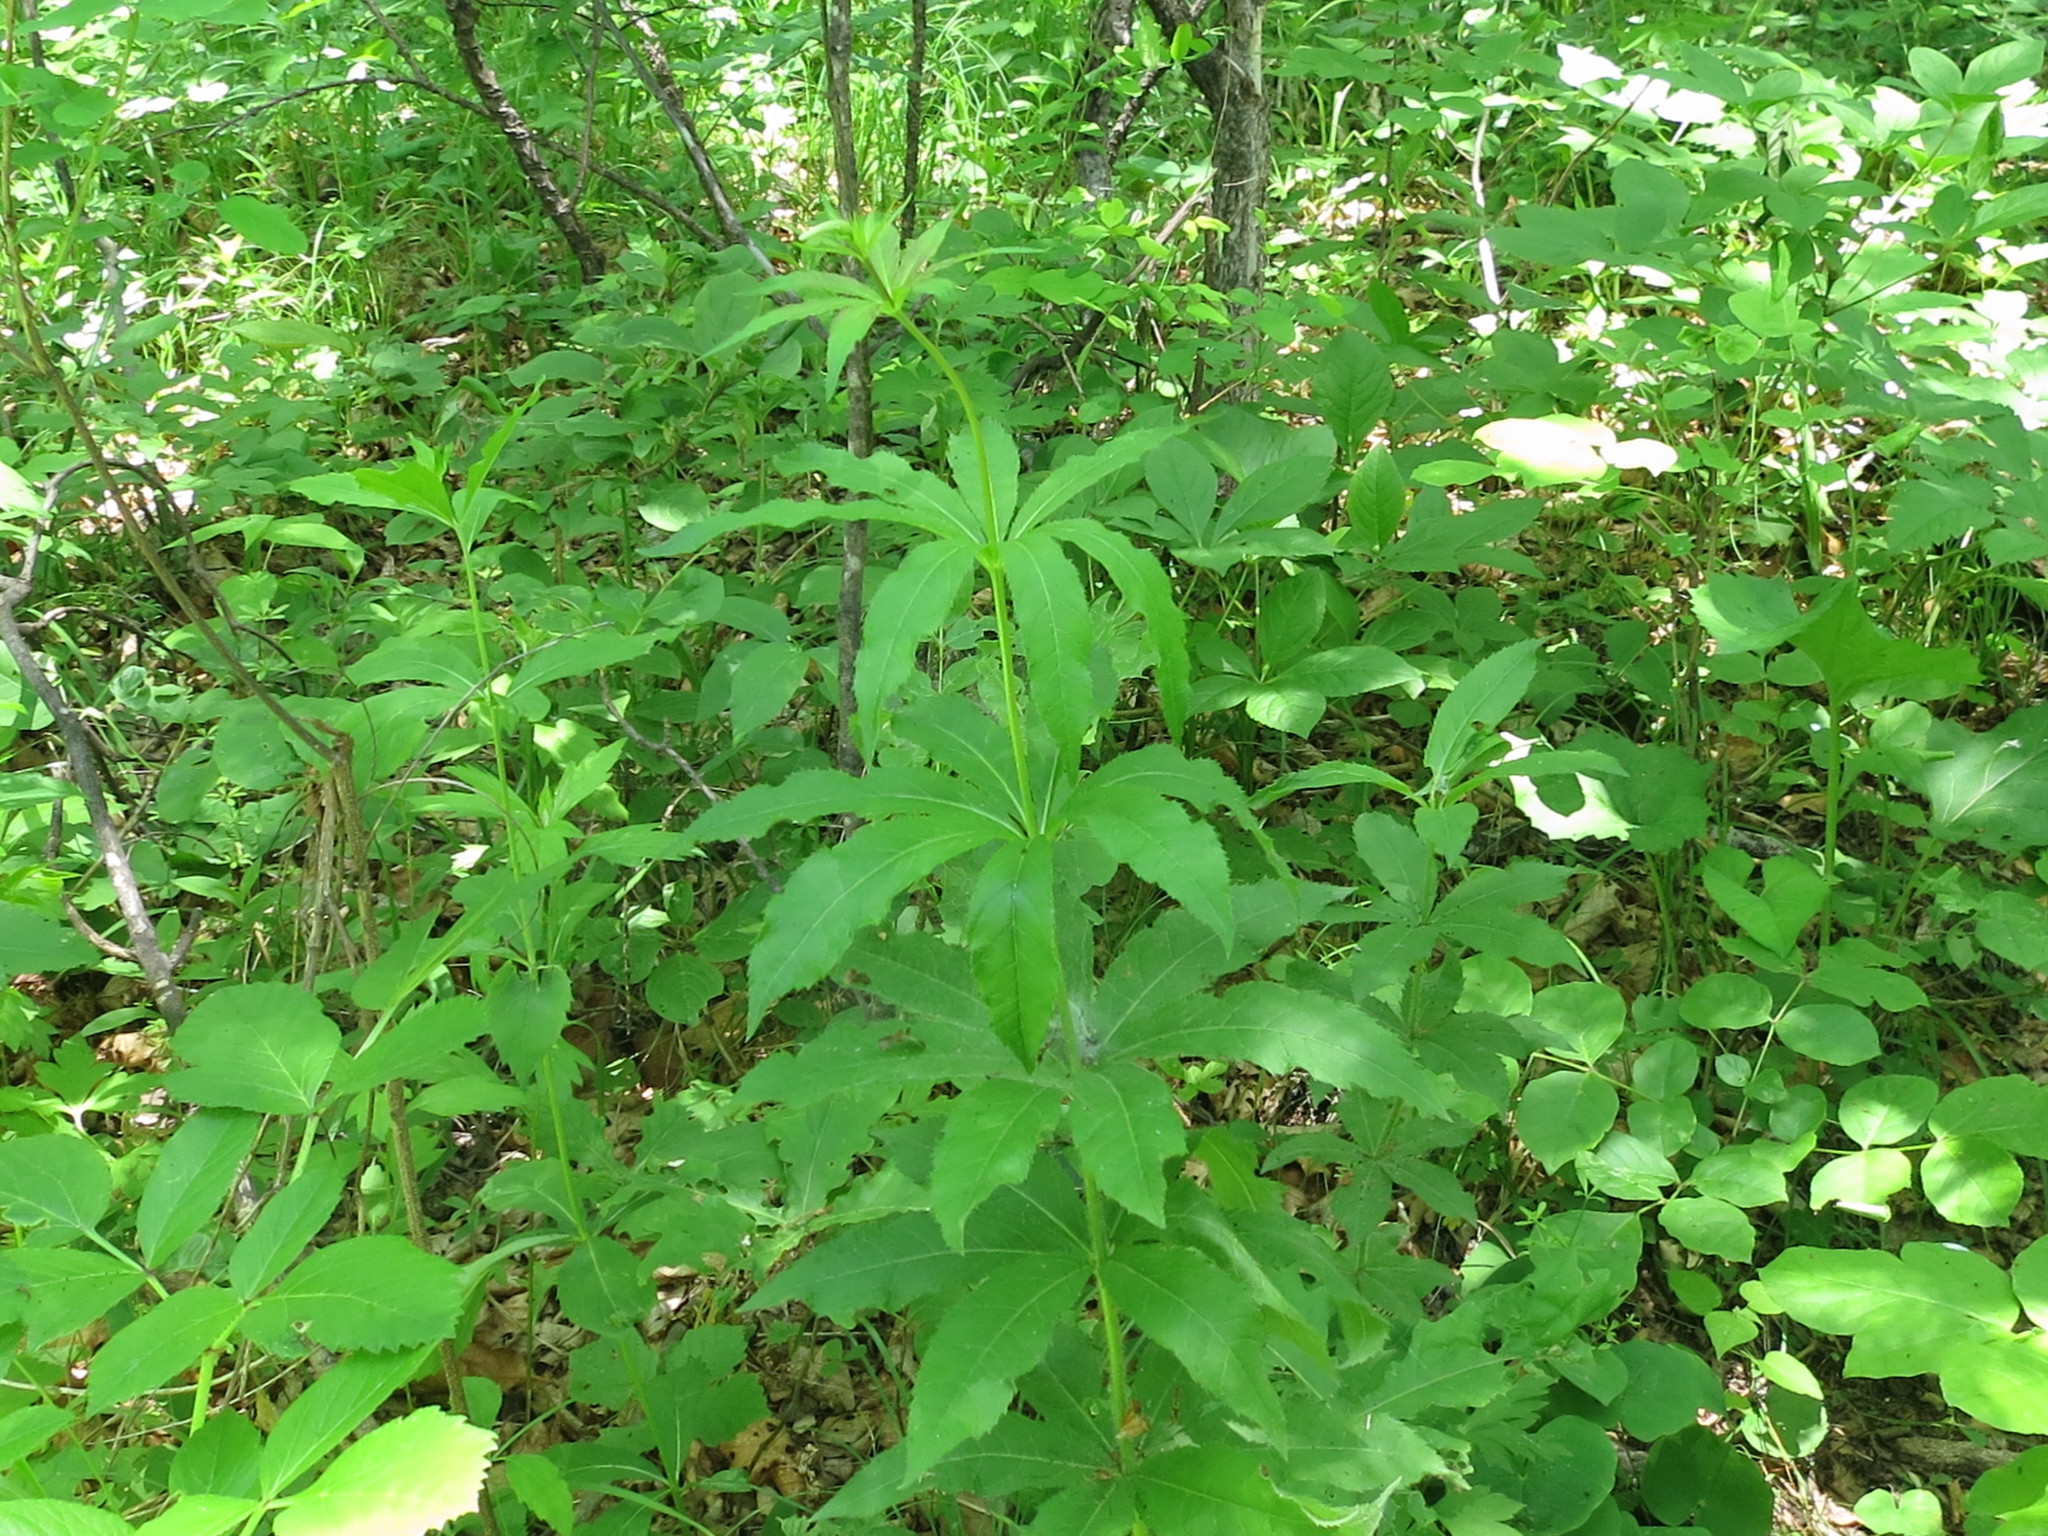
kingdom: Plantae
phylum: Tracheophyta
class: Magnoliopsida
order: Lamiales
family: Plantaginaceae
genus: Veronicastrum
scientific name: Veronicastrum sibiricum
